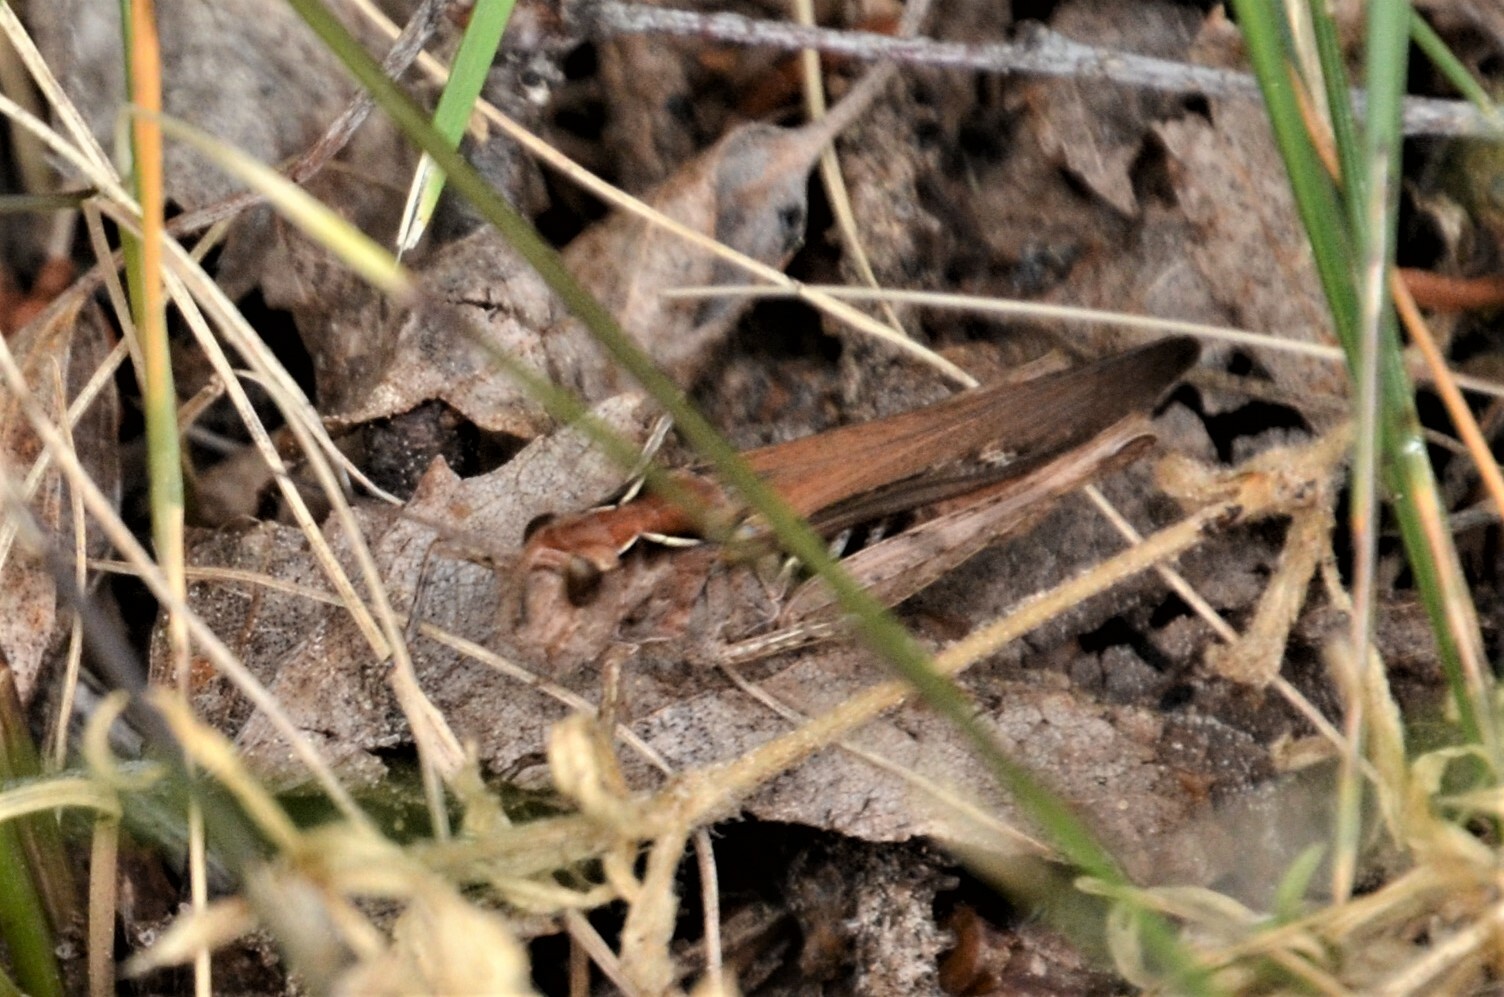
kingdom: Animalia
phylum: Arthropoda
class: Insecta
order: Orthoptera
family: Acrididae
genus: Chorthippus
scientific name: Chorthippus brunneus
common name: Field grasshopper
